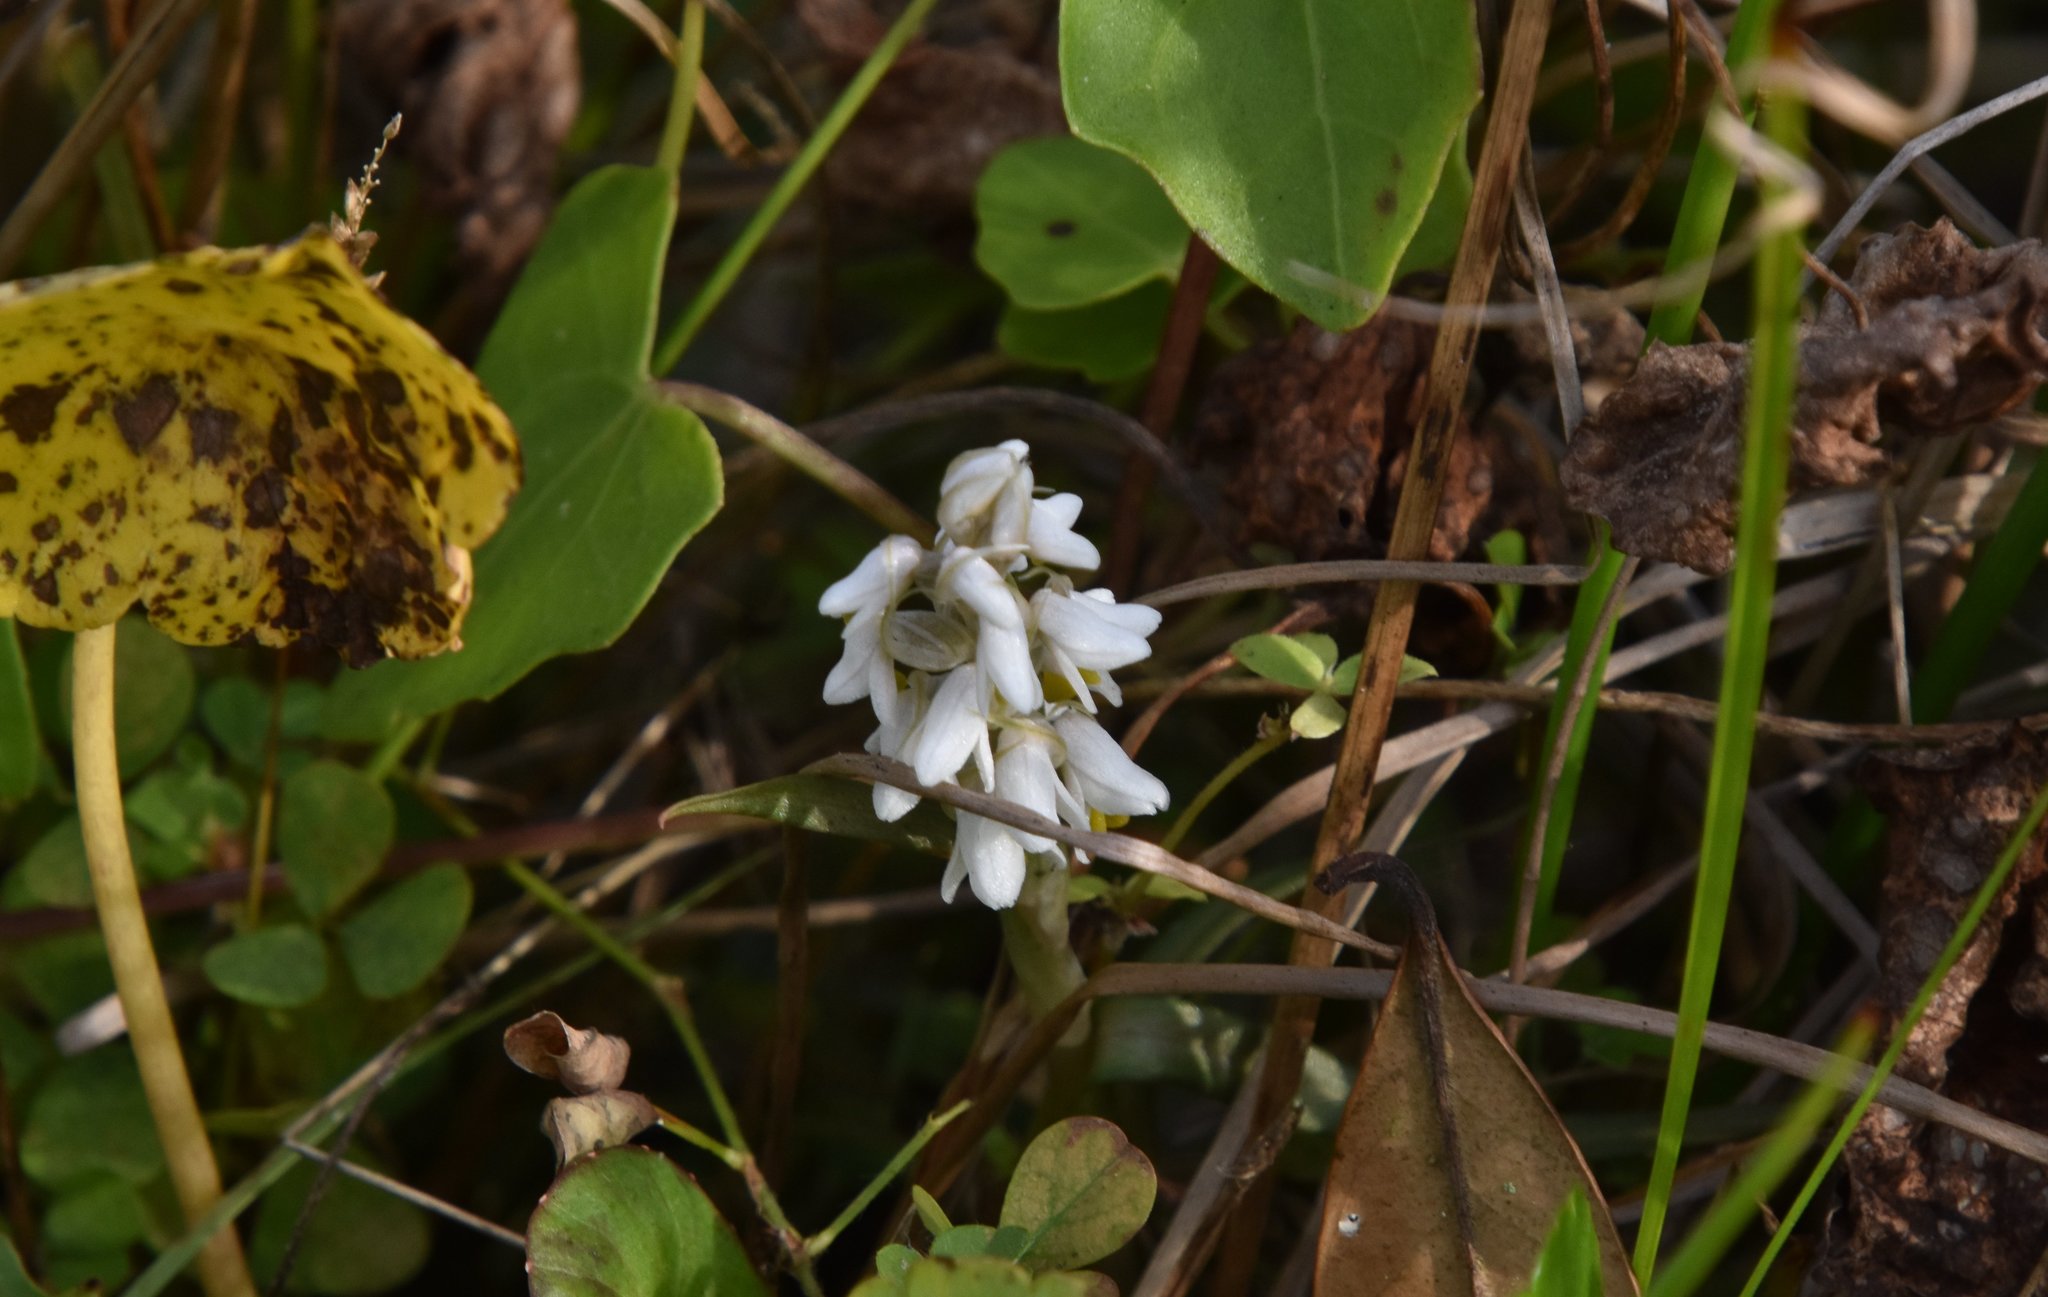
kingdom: Plantae
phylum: Tracheophyta
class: Liliopsida
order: Asparagales
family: Orchidaceae
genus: Zeuxine
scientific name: Zeuxine strateumatica
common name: Soldier's orchid
